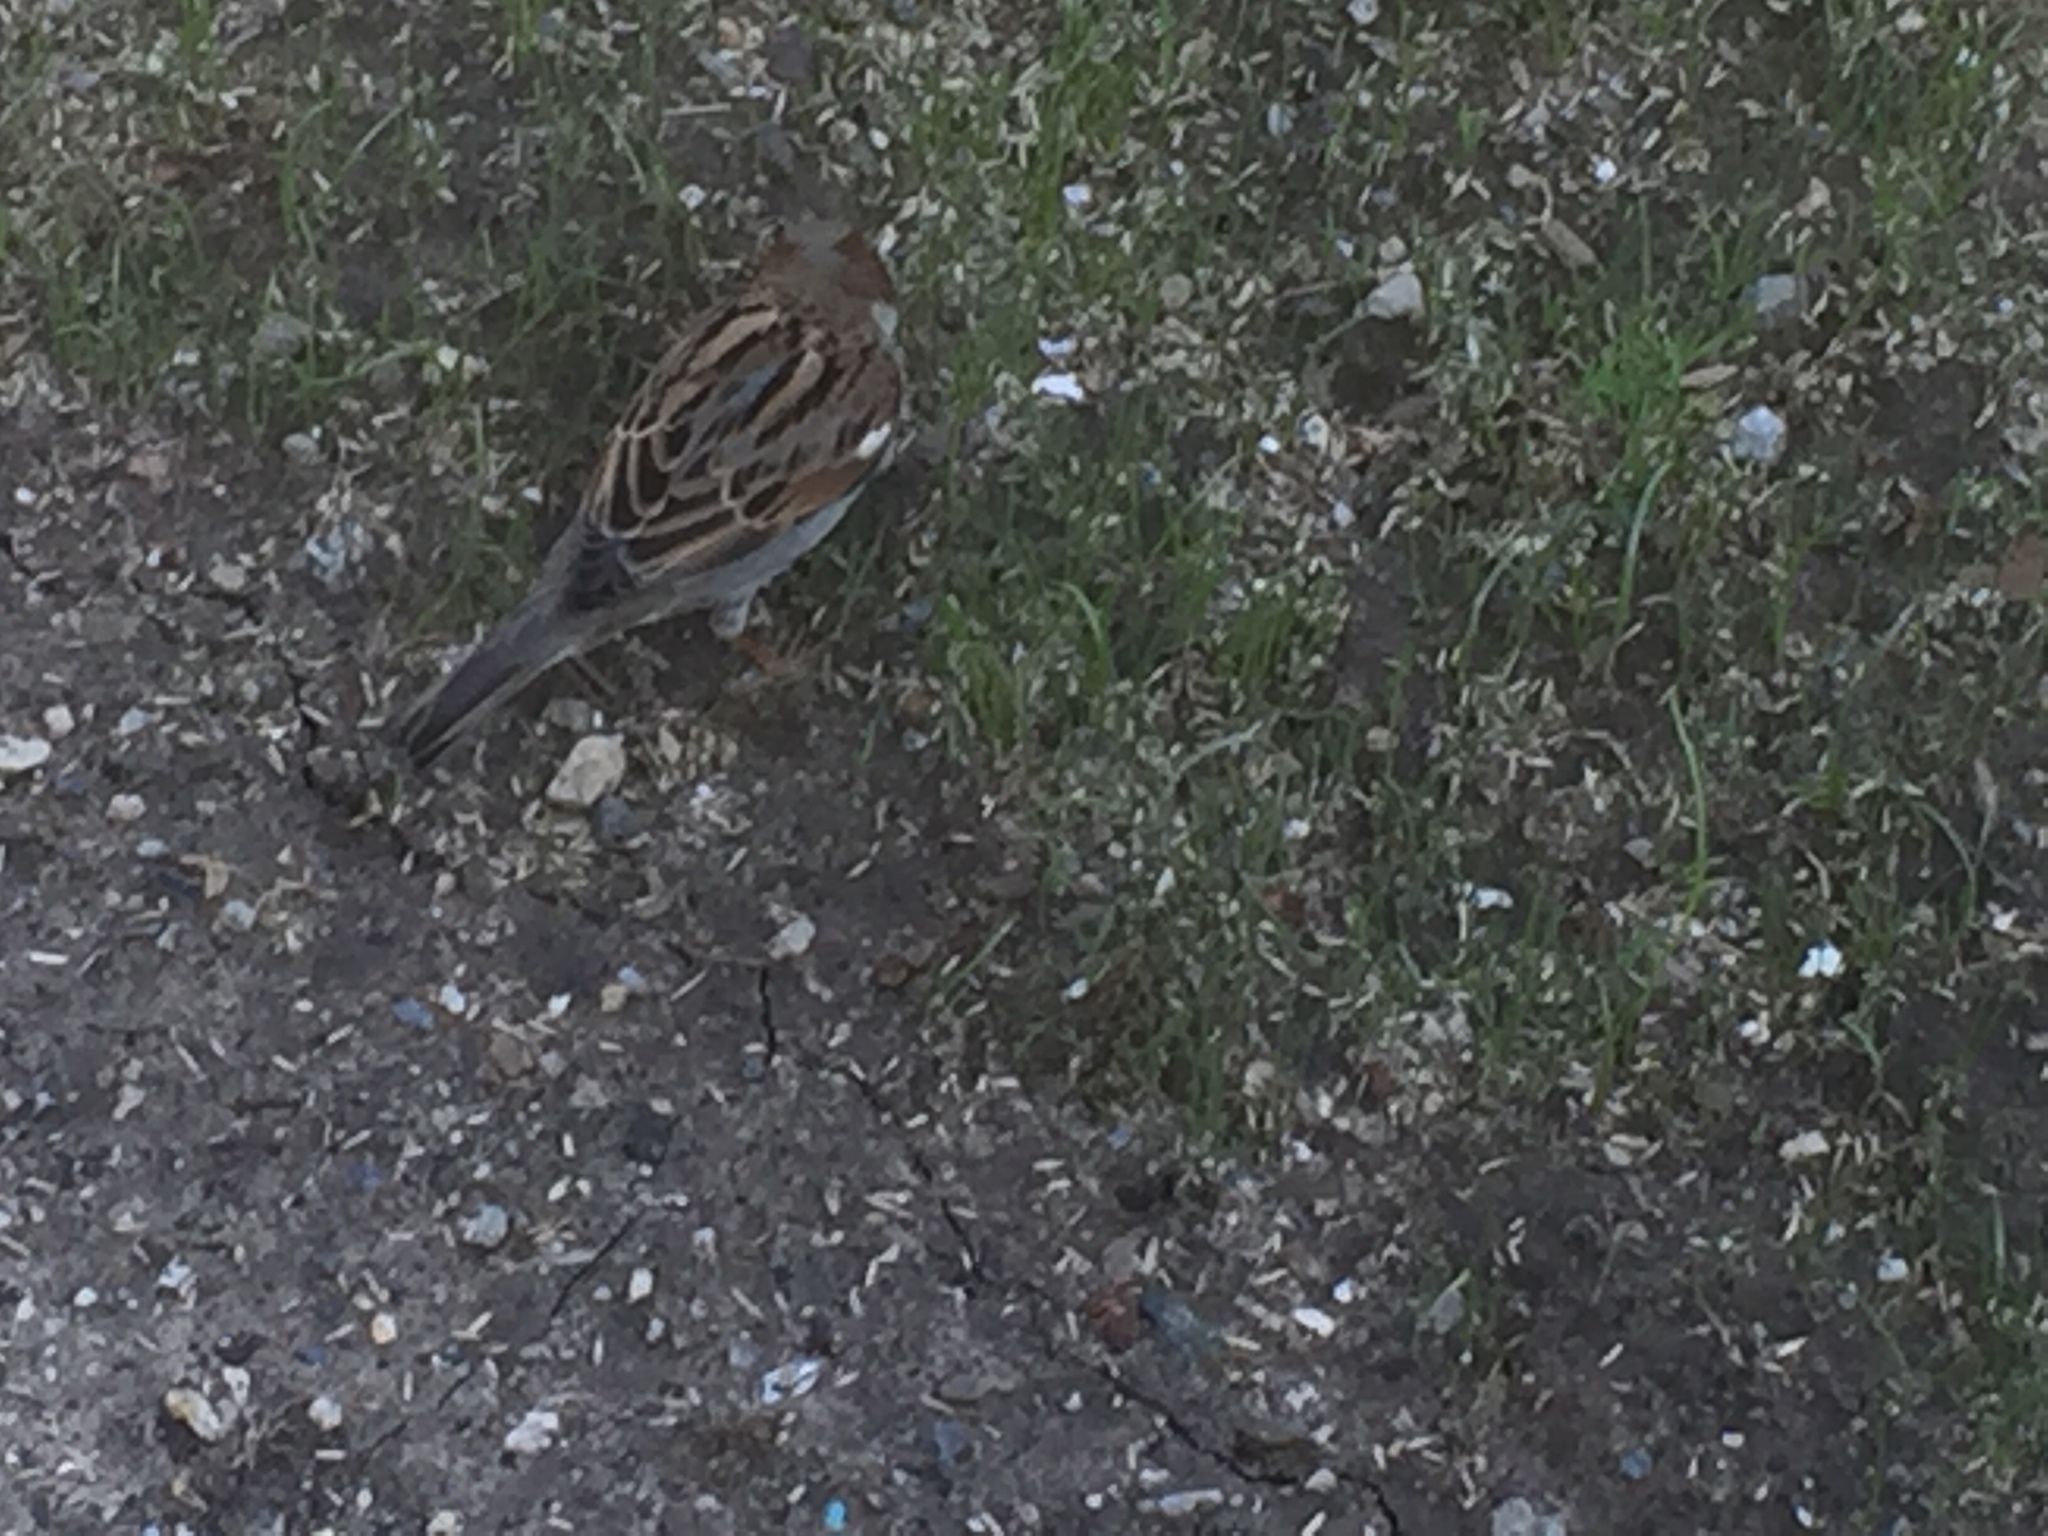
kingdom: Animalia
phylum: Chordata
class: Aves
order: Passeriformes
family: Passeridae
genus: Passer
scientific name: Passer domesticus
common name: House sparrow
